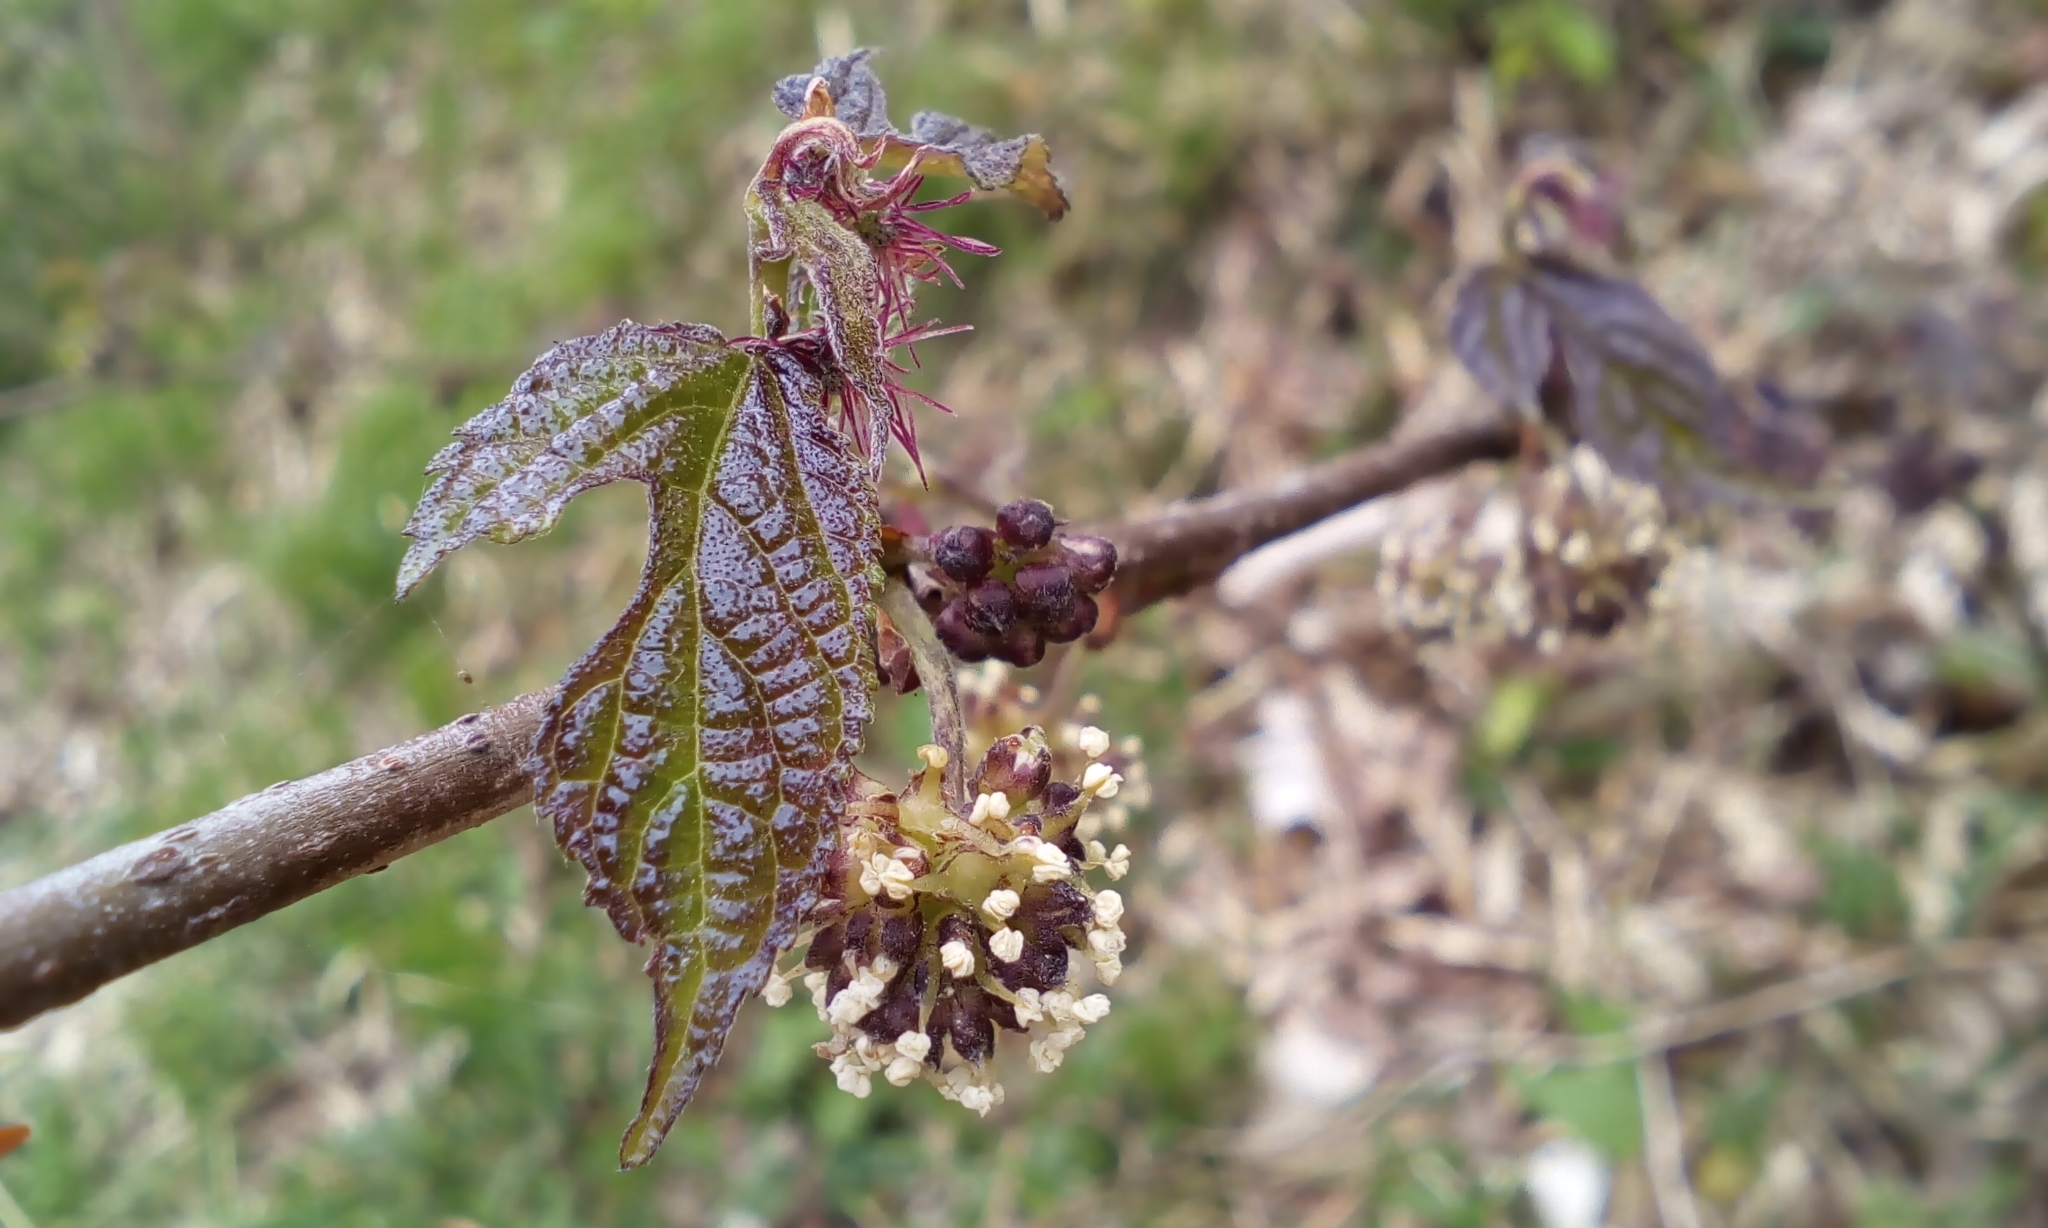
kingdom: Plantae
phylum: Tracheophyta
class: Magnoliopsida
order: Rosales
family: Moraceae
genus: Broussonetia
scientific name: Broussonetia kazinoki
